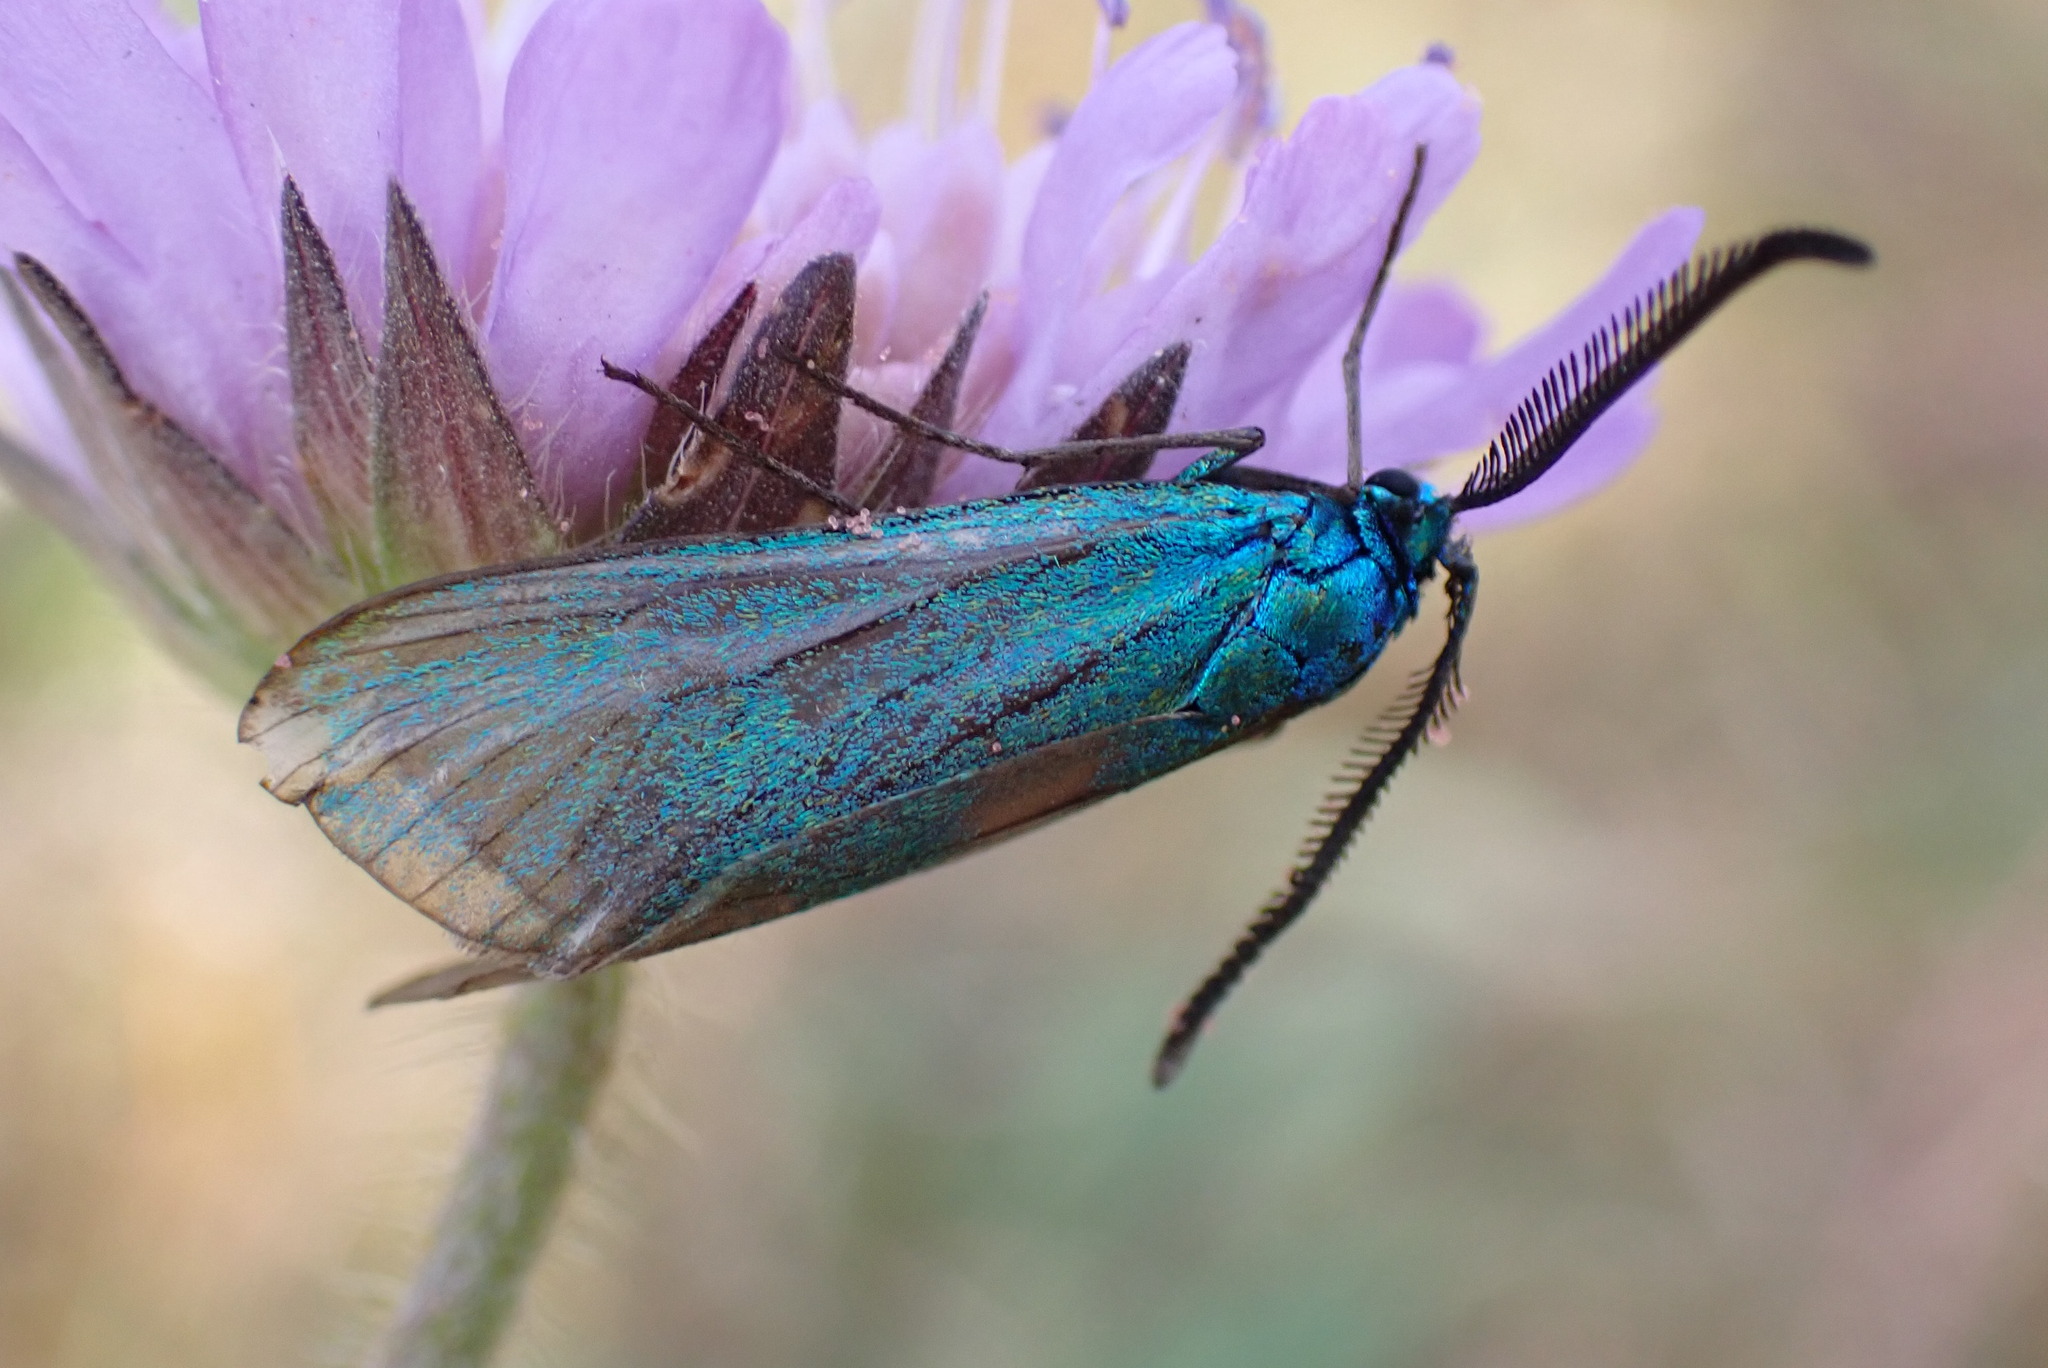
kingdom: Animalia
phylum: Arthropoda
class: Insecta
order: Lepidoptera
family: Zygaenidae
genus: Adscita
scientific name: Adscita statices
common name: Forester
